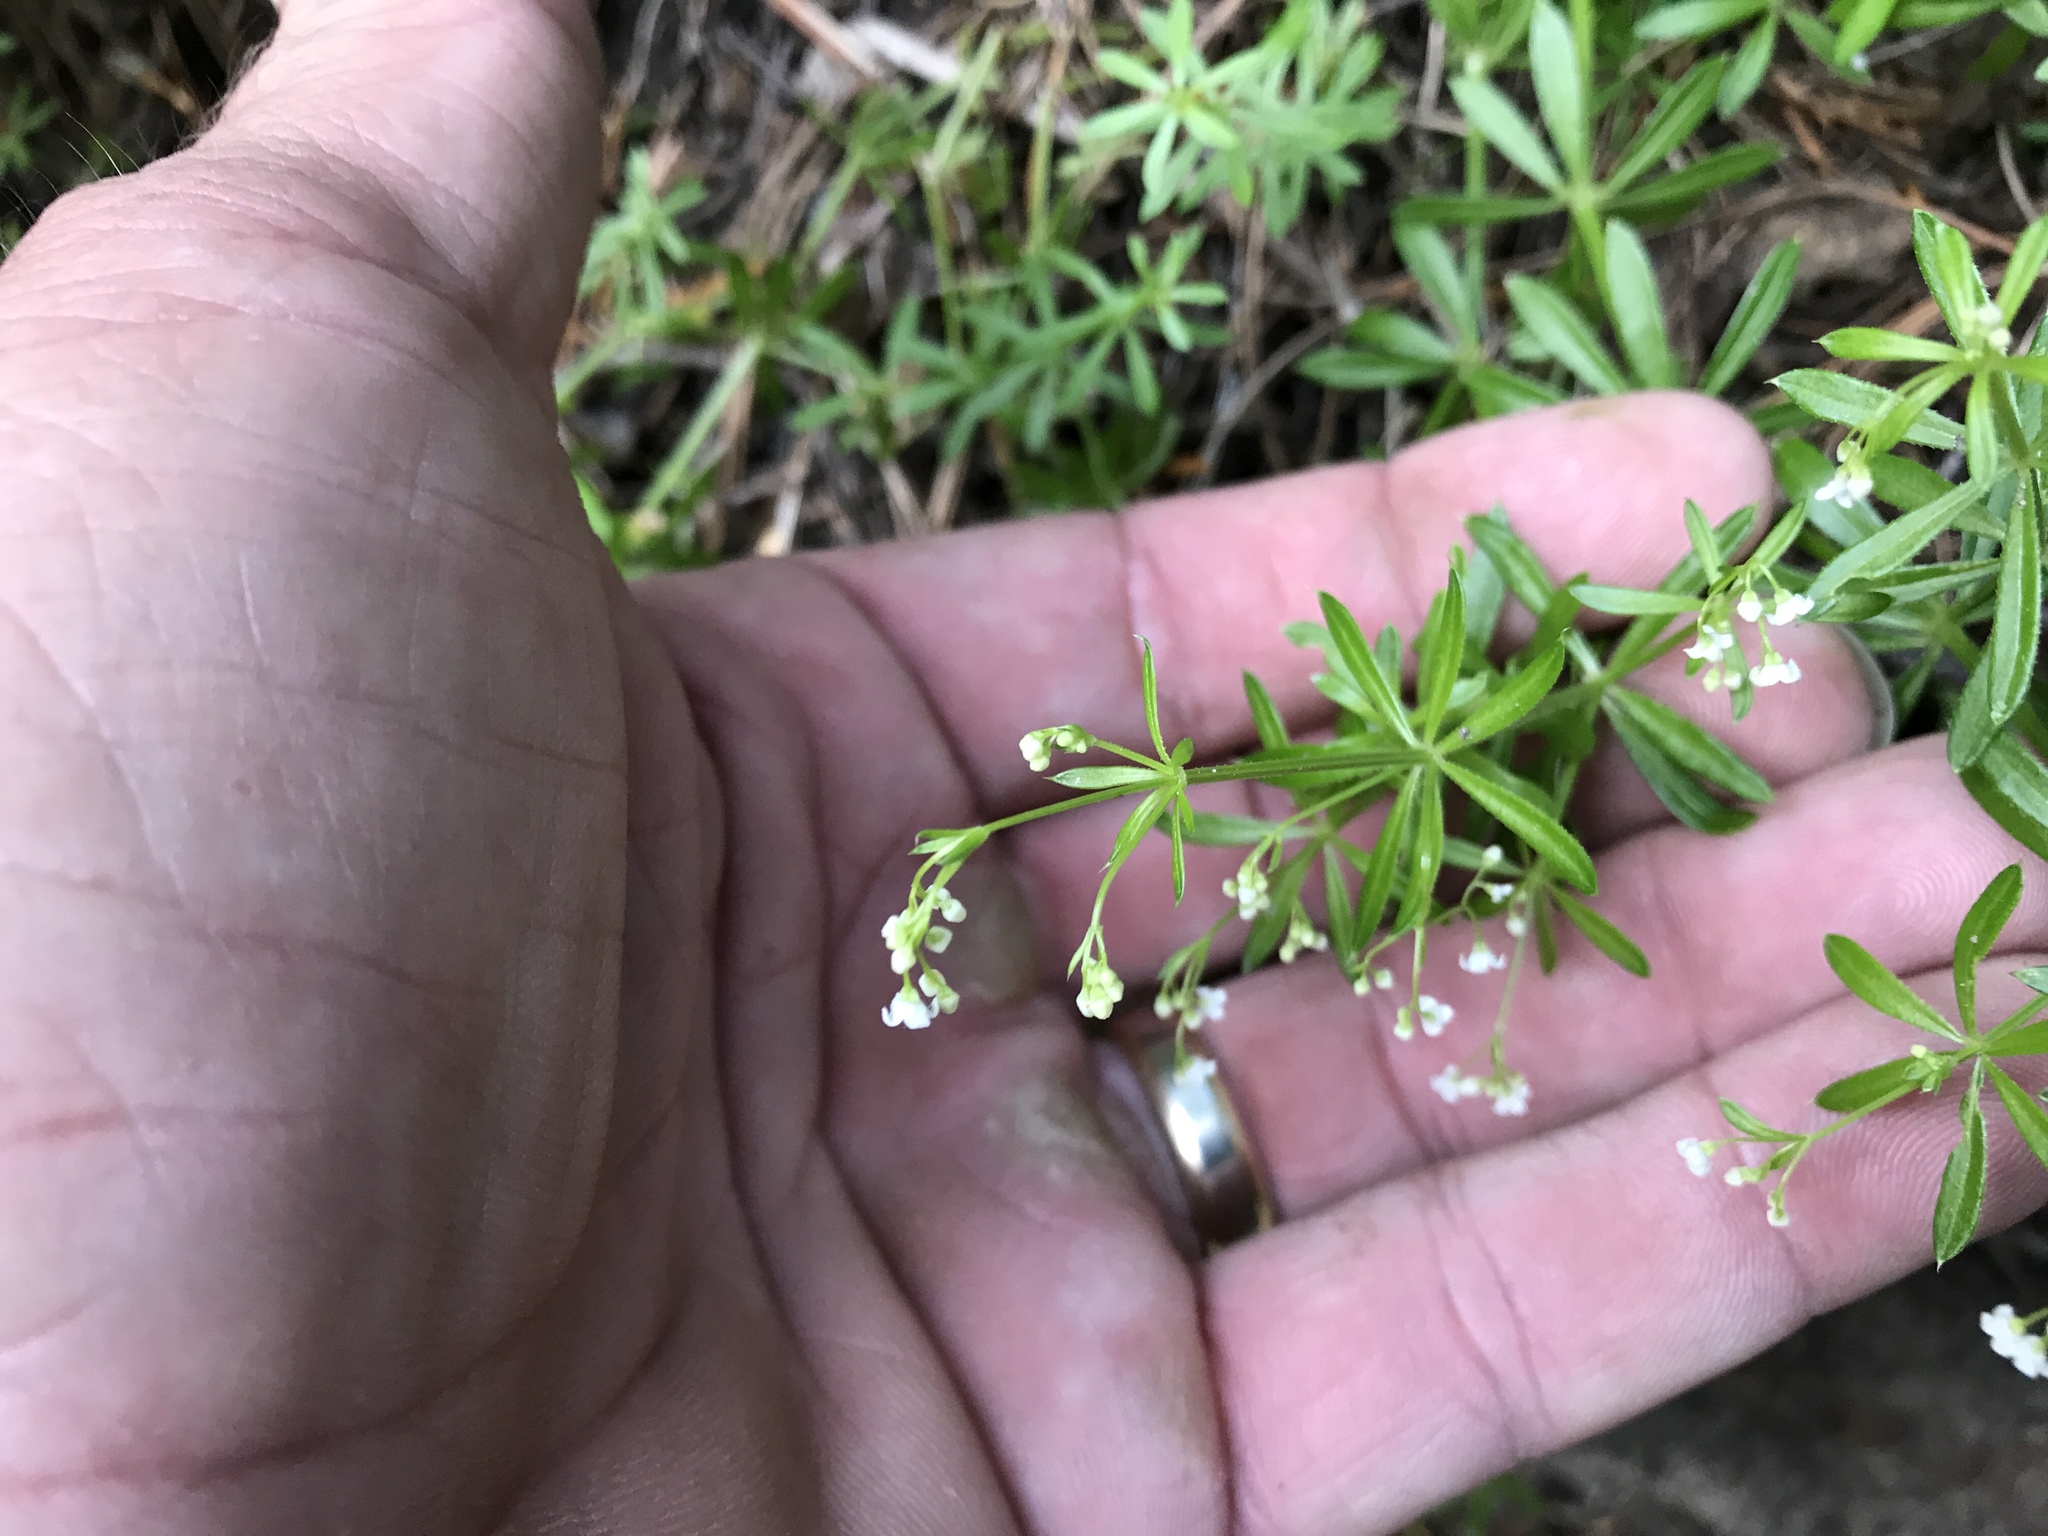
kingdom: Plantae
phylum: Tracheophyta
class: Magnoliopsida
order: Gentianales
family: Rubiaceae
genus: Galium
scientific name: Galium mexicanum
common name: Mexican bedstraw
